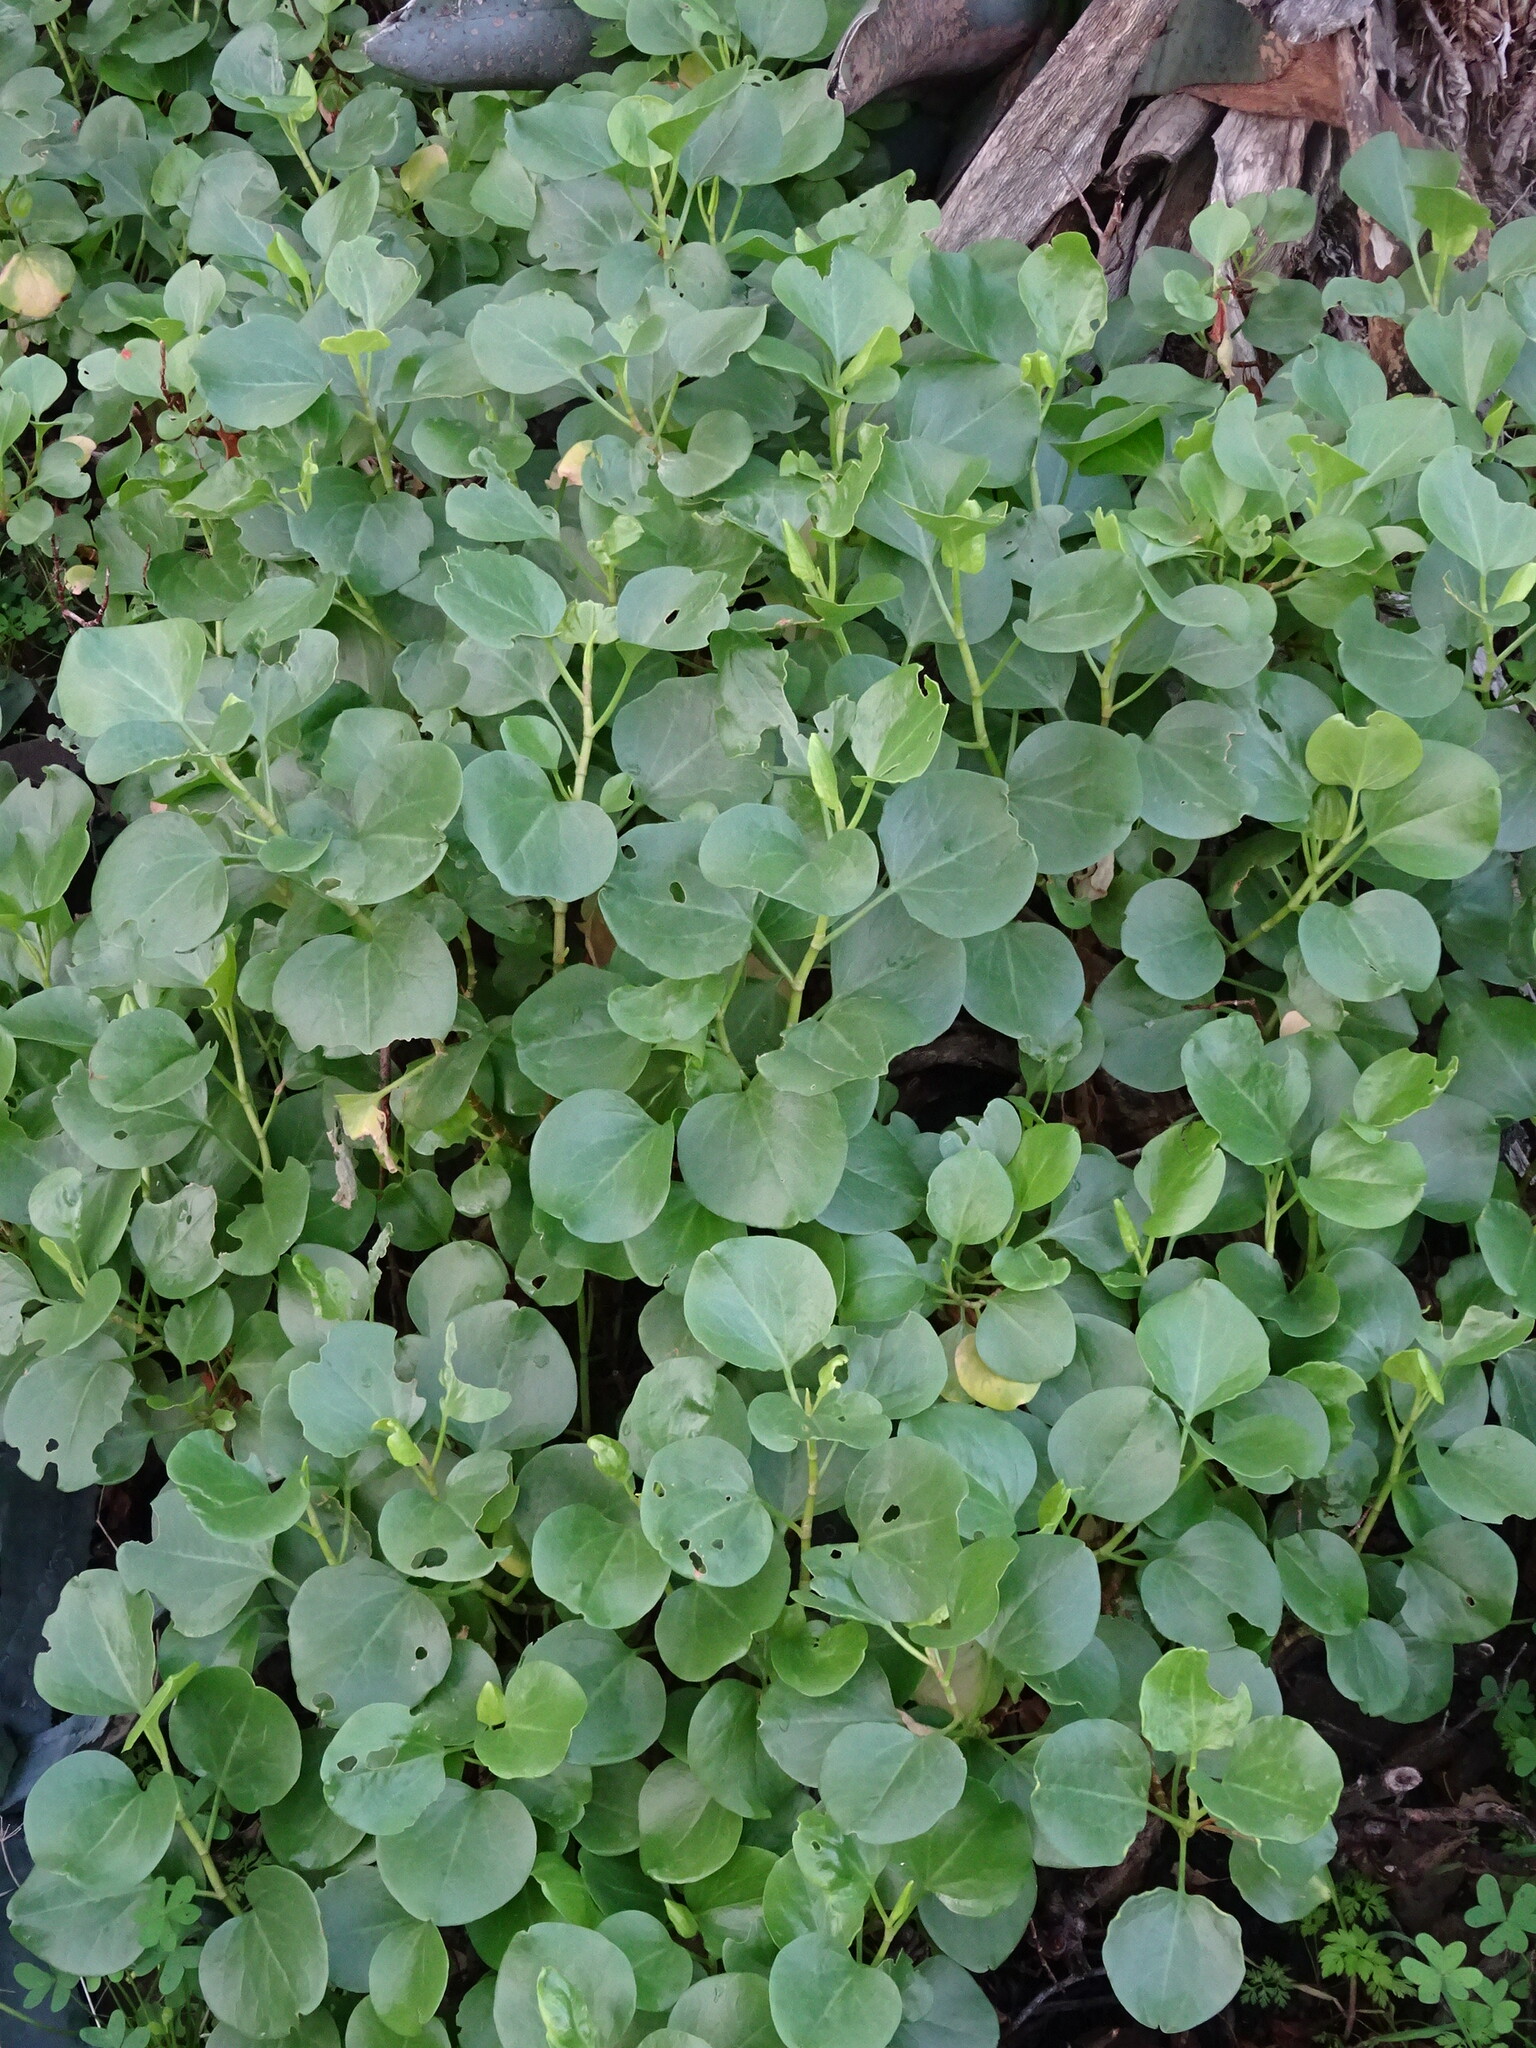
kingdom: Plantae
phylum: Tracheophyta
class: Magnoliopsida
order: Caryophyllales
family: Polygonaceae
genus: Rumex
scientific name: Rumex lunaria
